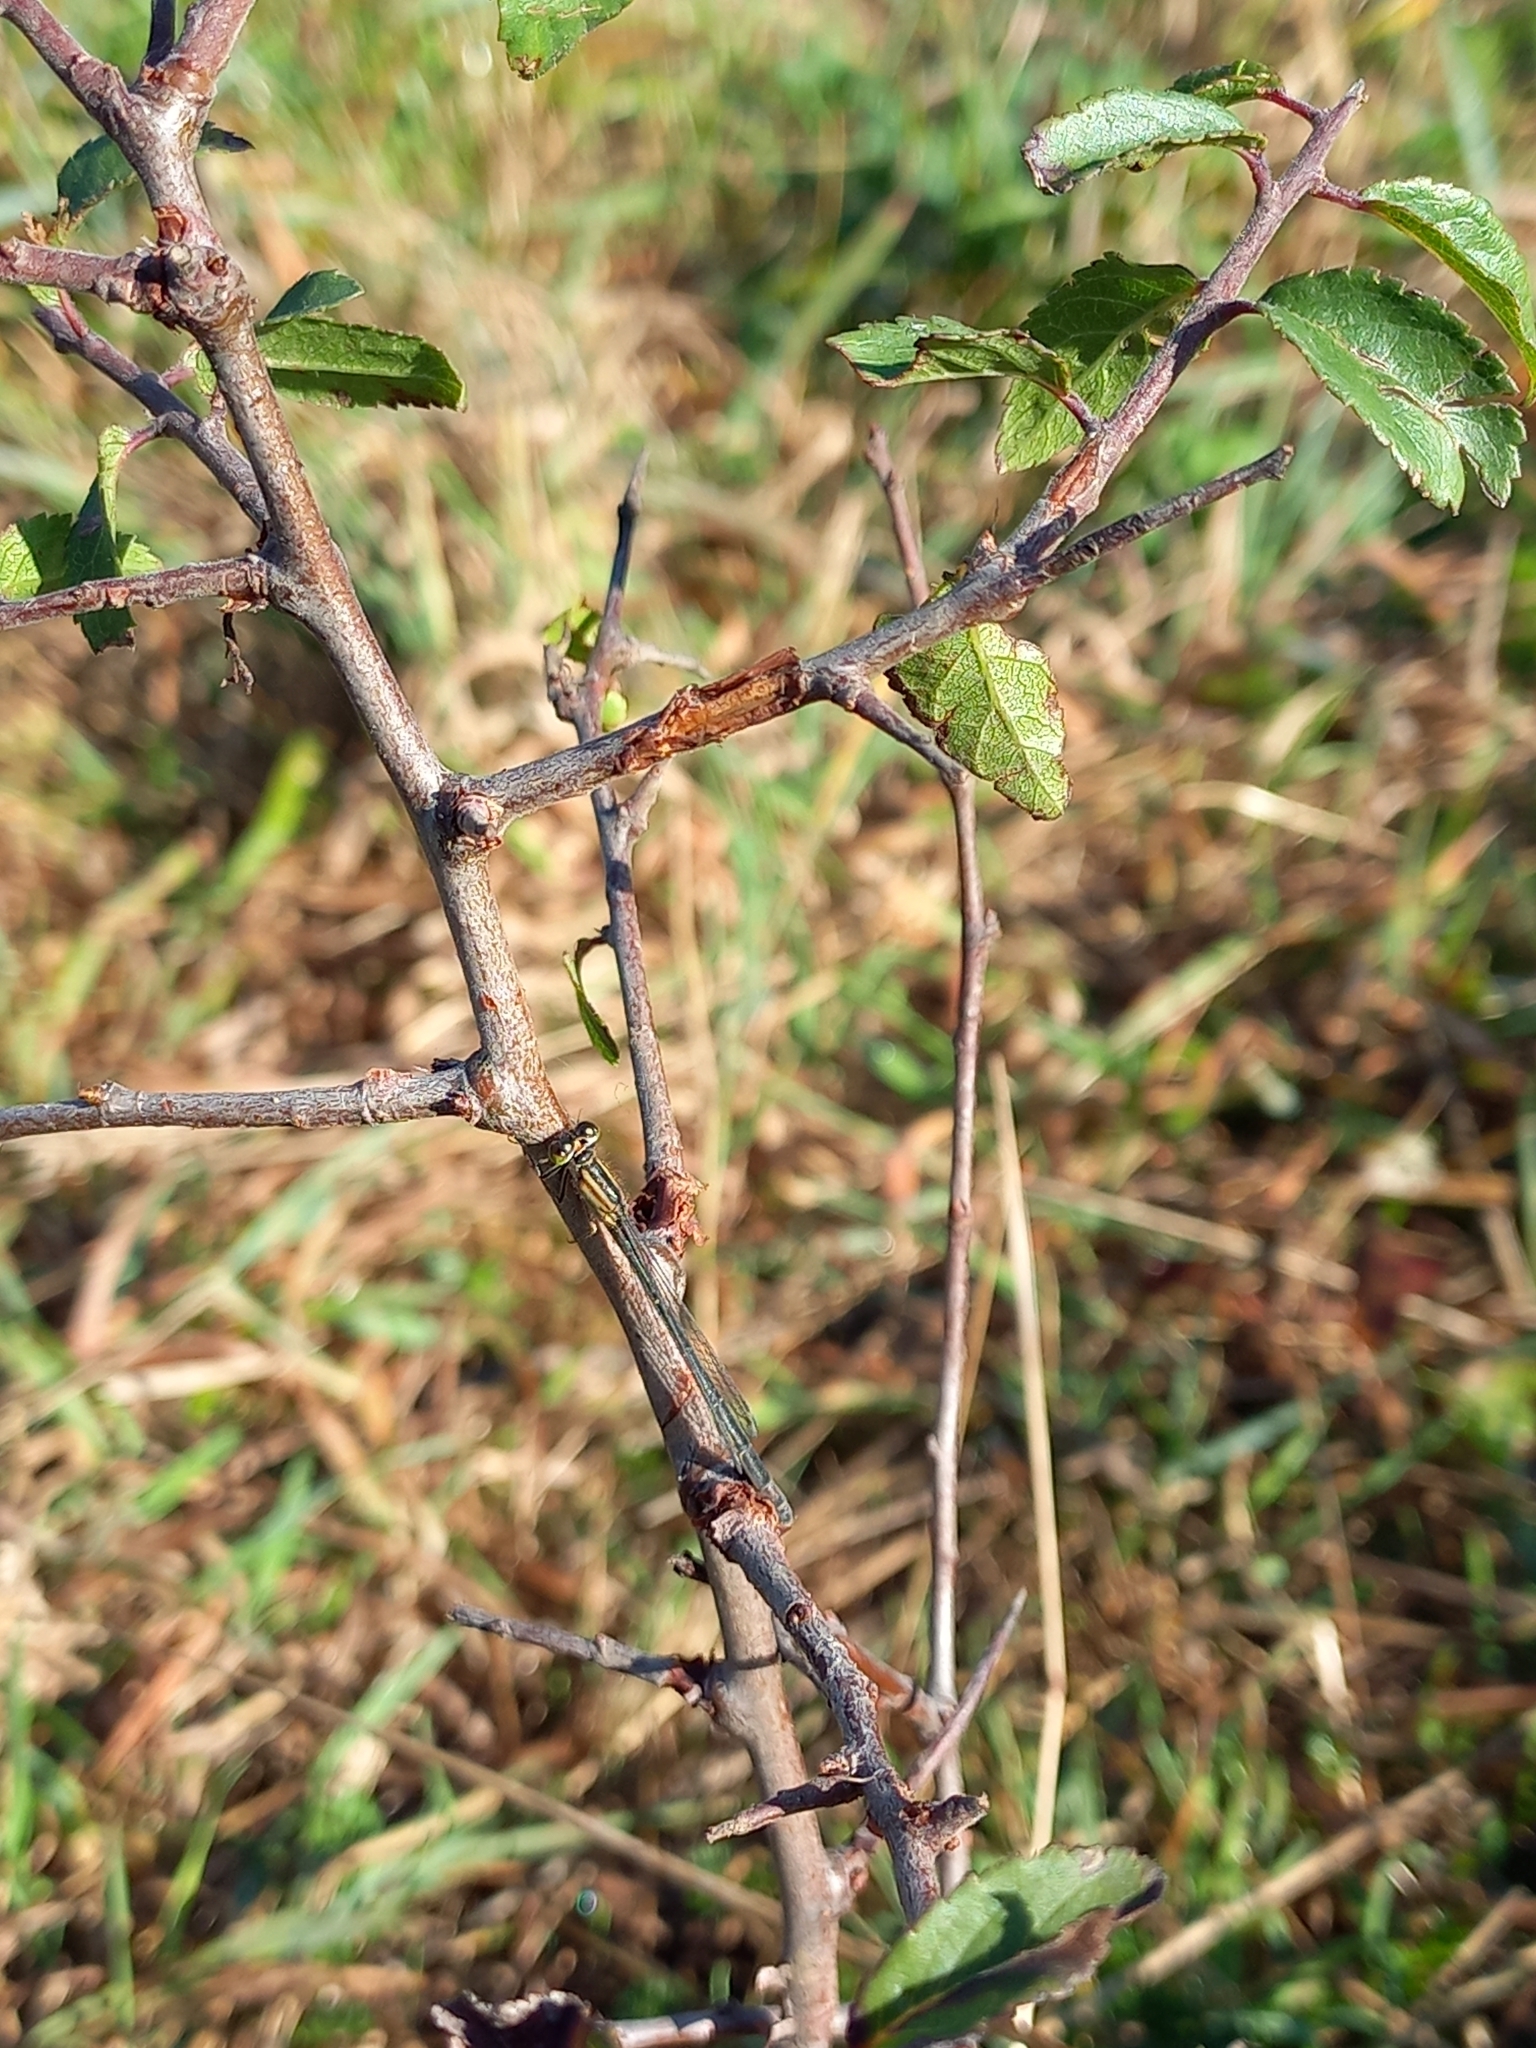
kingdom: Animalia
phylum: Arthropoda
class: Insecta
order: Odonata
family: Coenagrionidae
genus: Ischnura
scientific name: Ischnura elegans
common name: Blue-tailed damselfly
